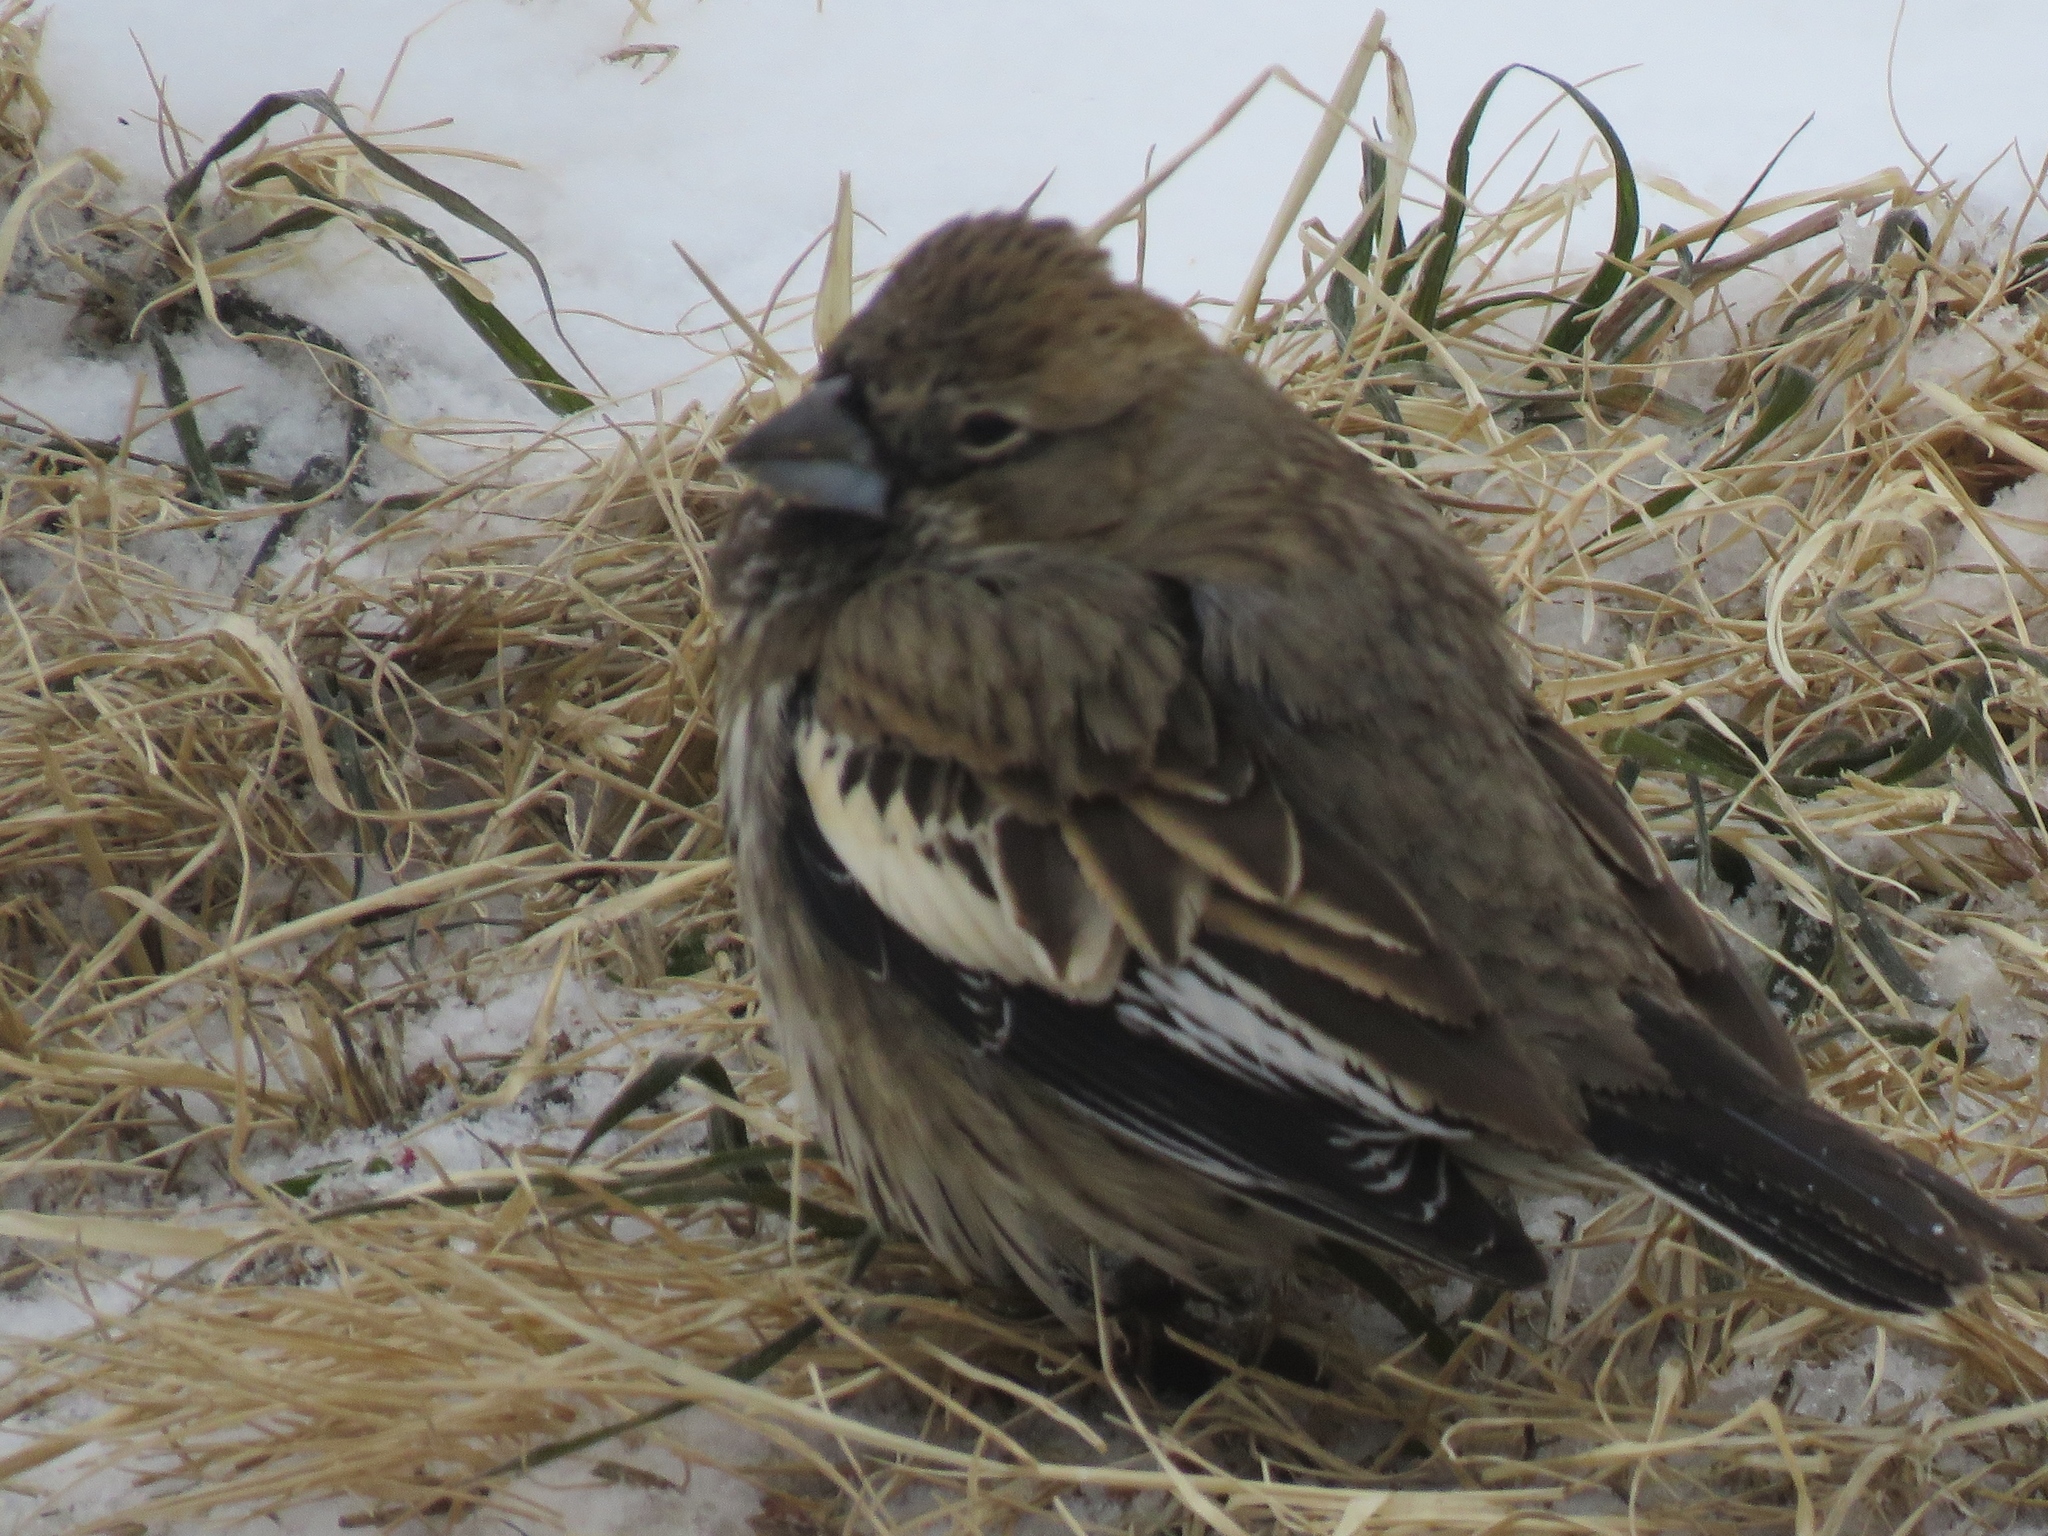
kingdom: Animalia
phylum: Chordata
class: Aves
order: Passeriformes
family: Passerellidae
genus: Calamospiza
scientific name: Calamospiza melanocorys
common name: Lark bunting
